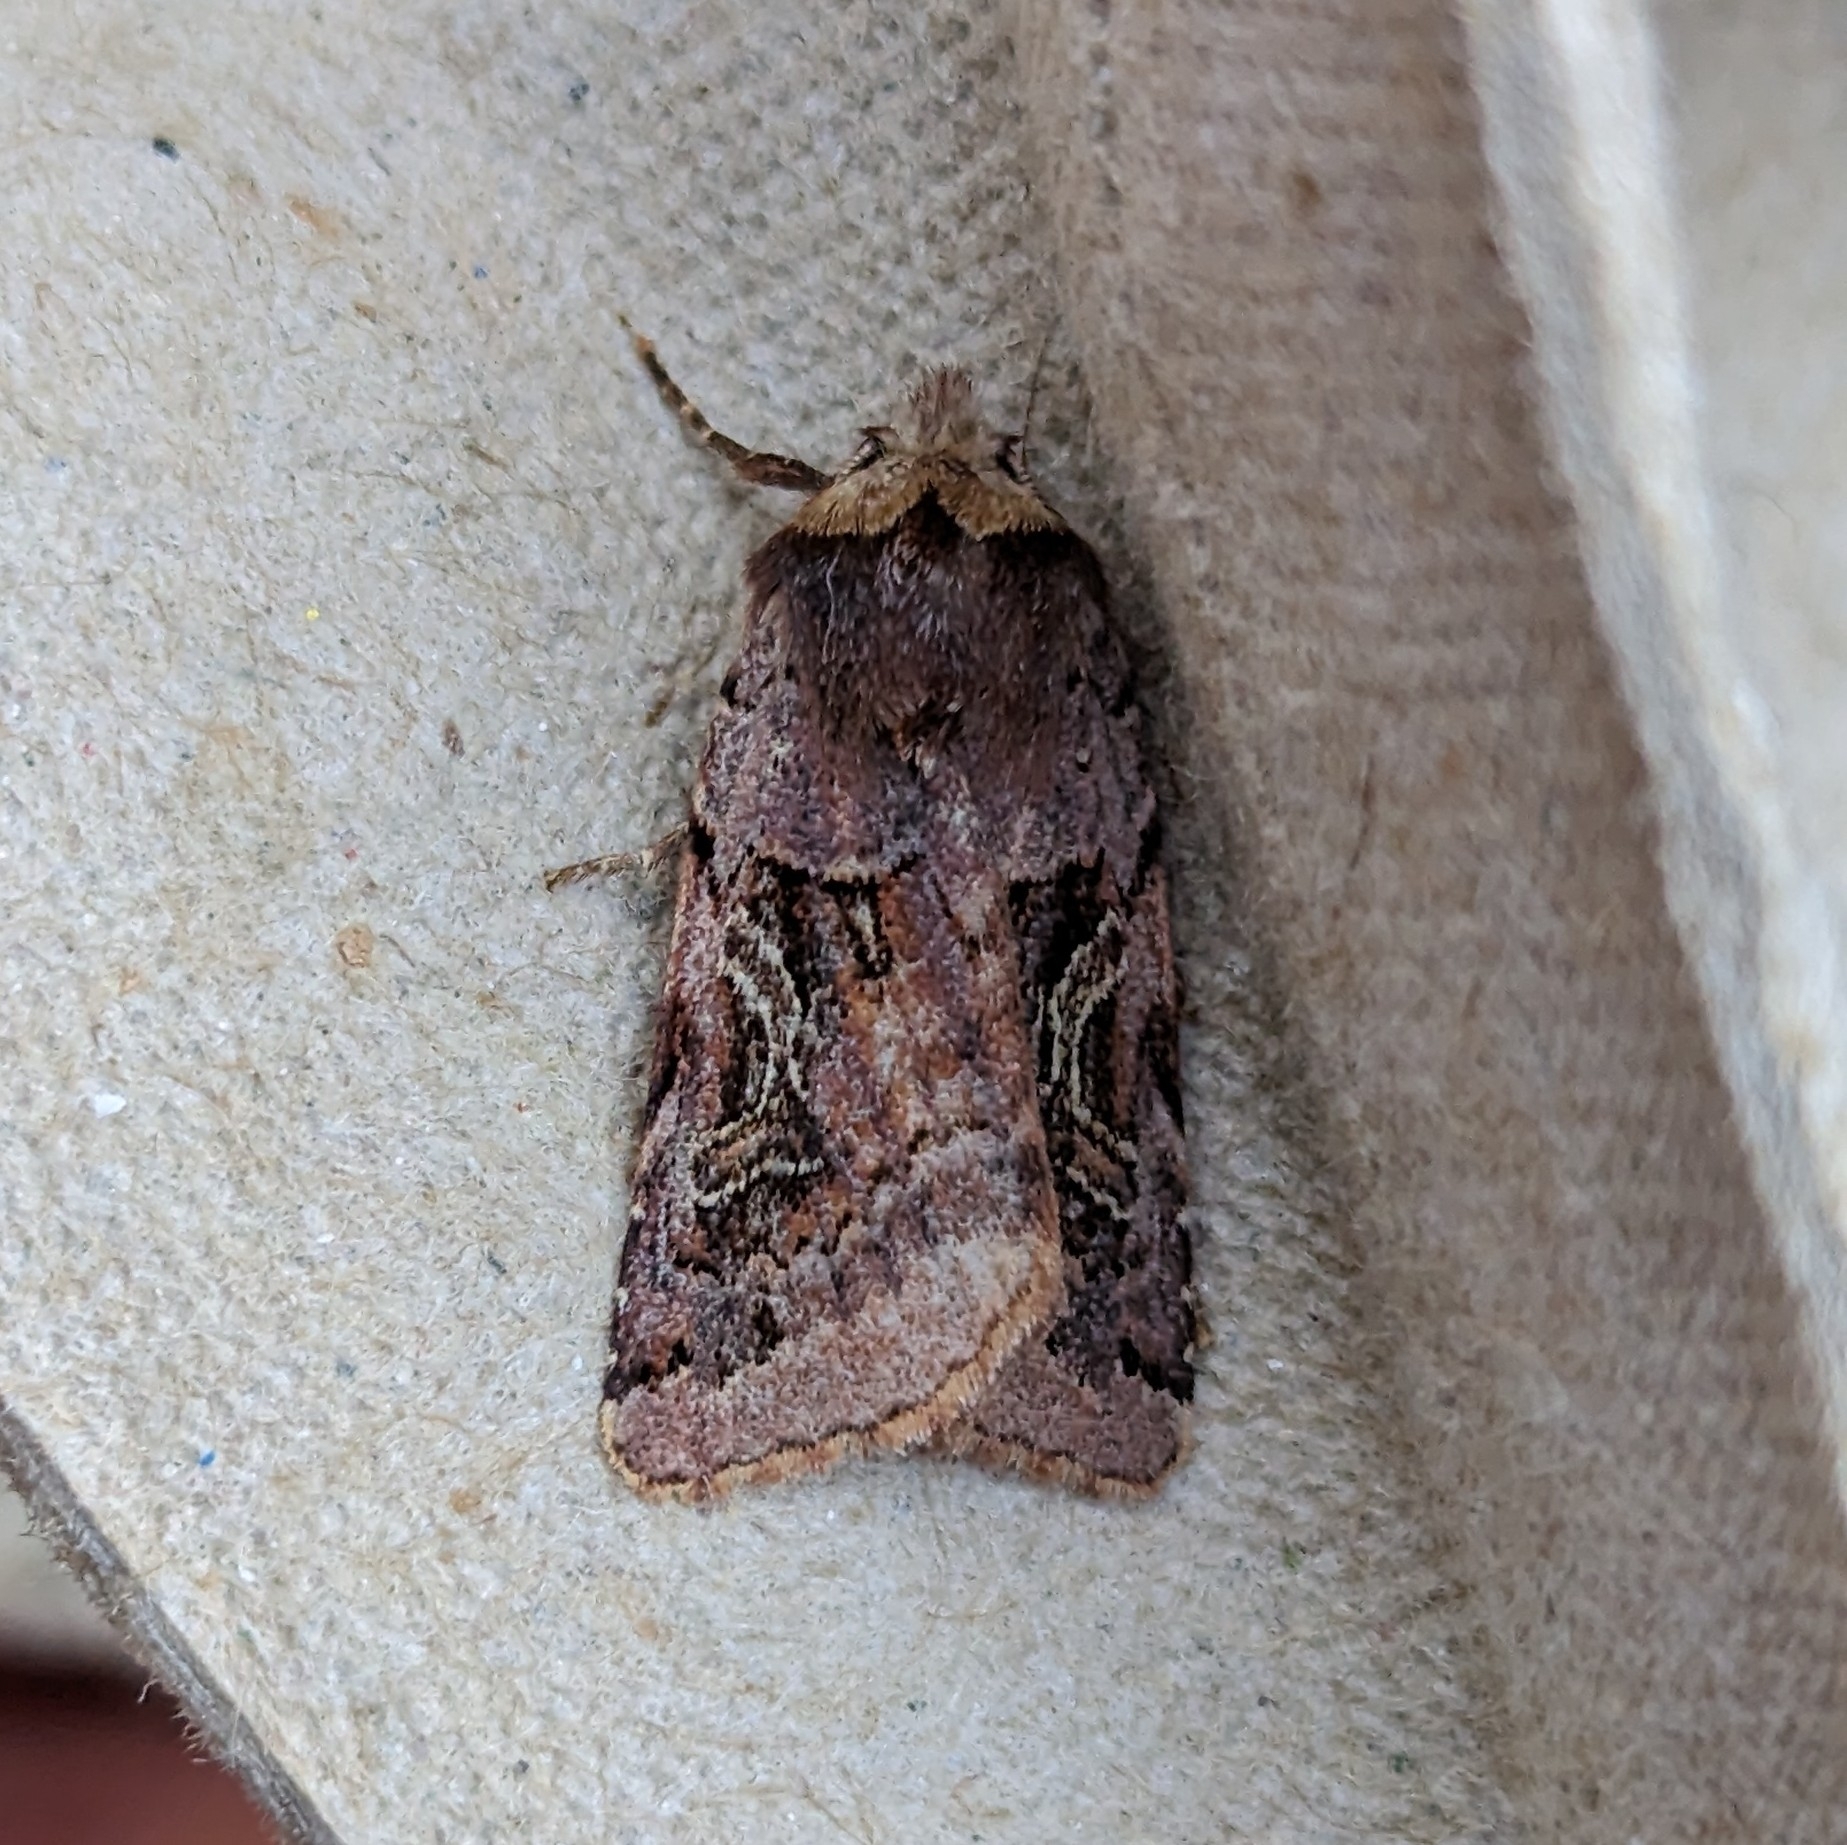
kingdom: Animalia
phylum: Arthropoda
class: Insecta
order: Lepidoptera
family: Noctuidae
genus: Cerastis
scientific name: Cerastis enigmatica
